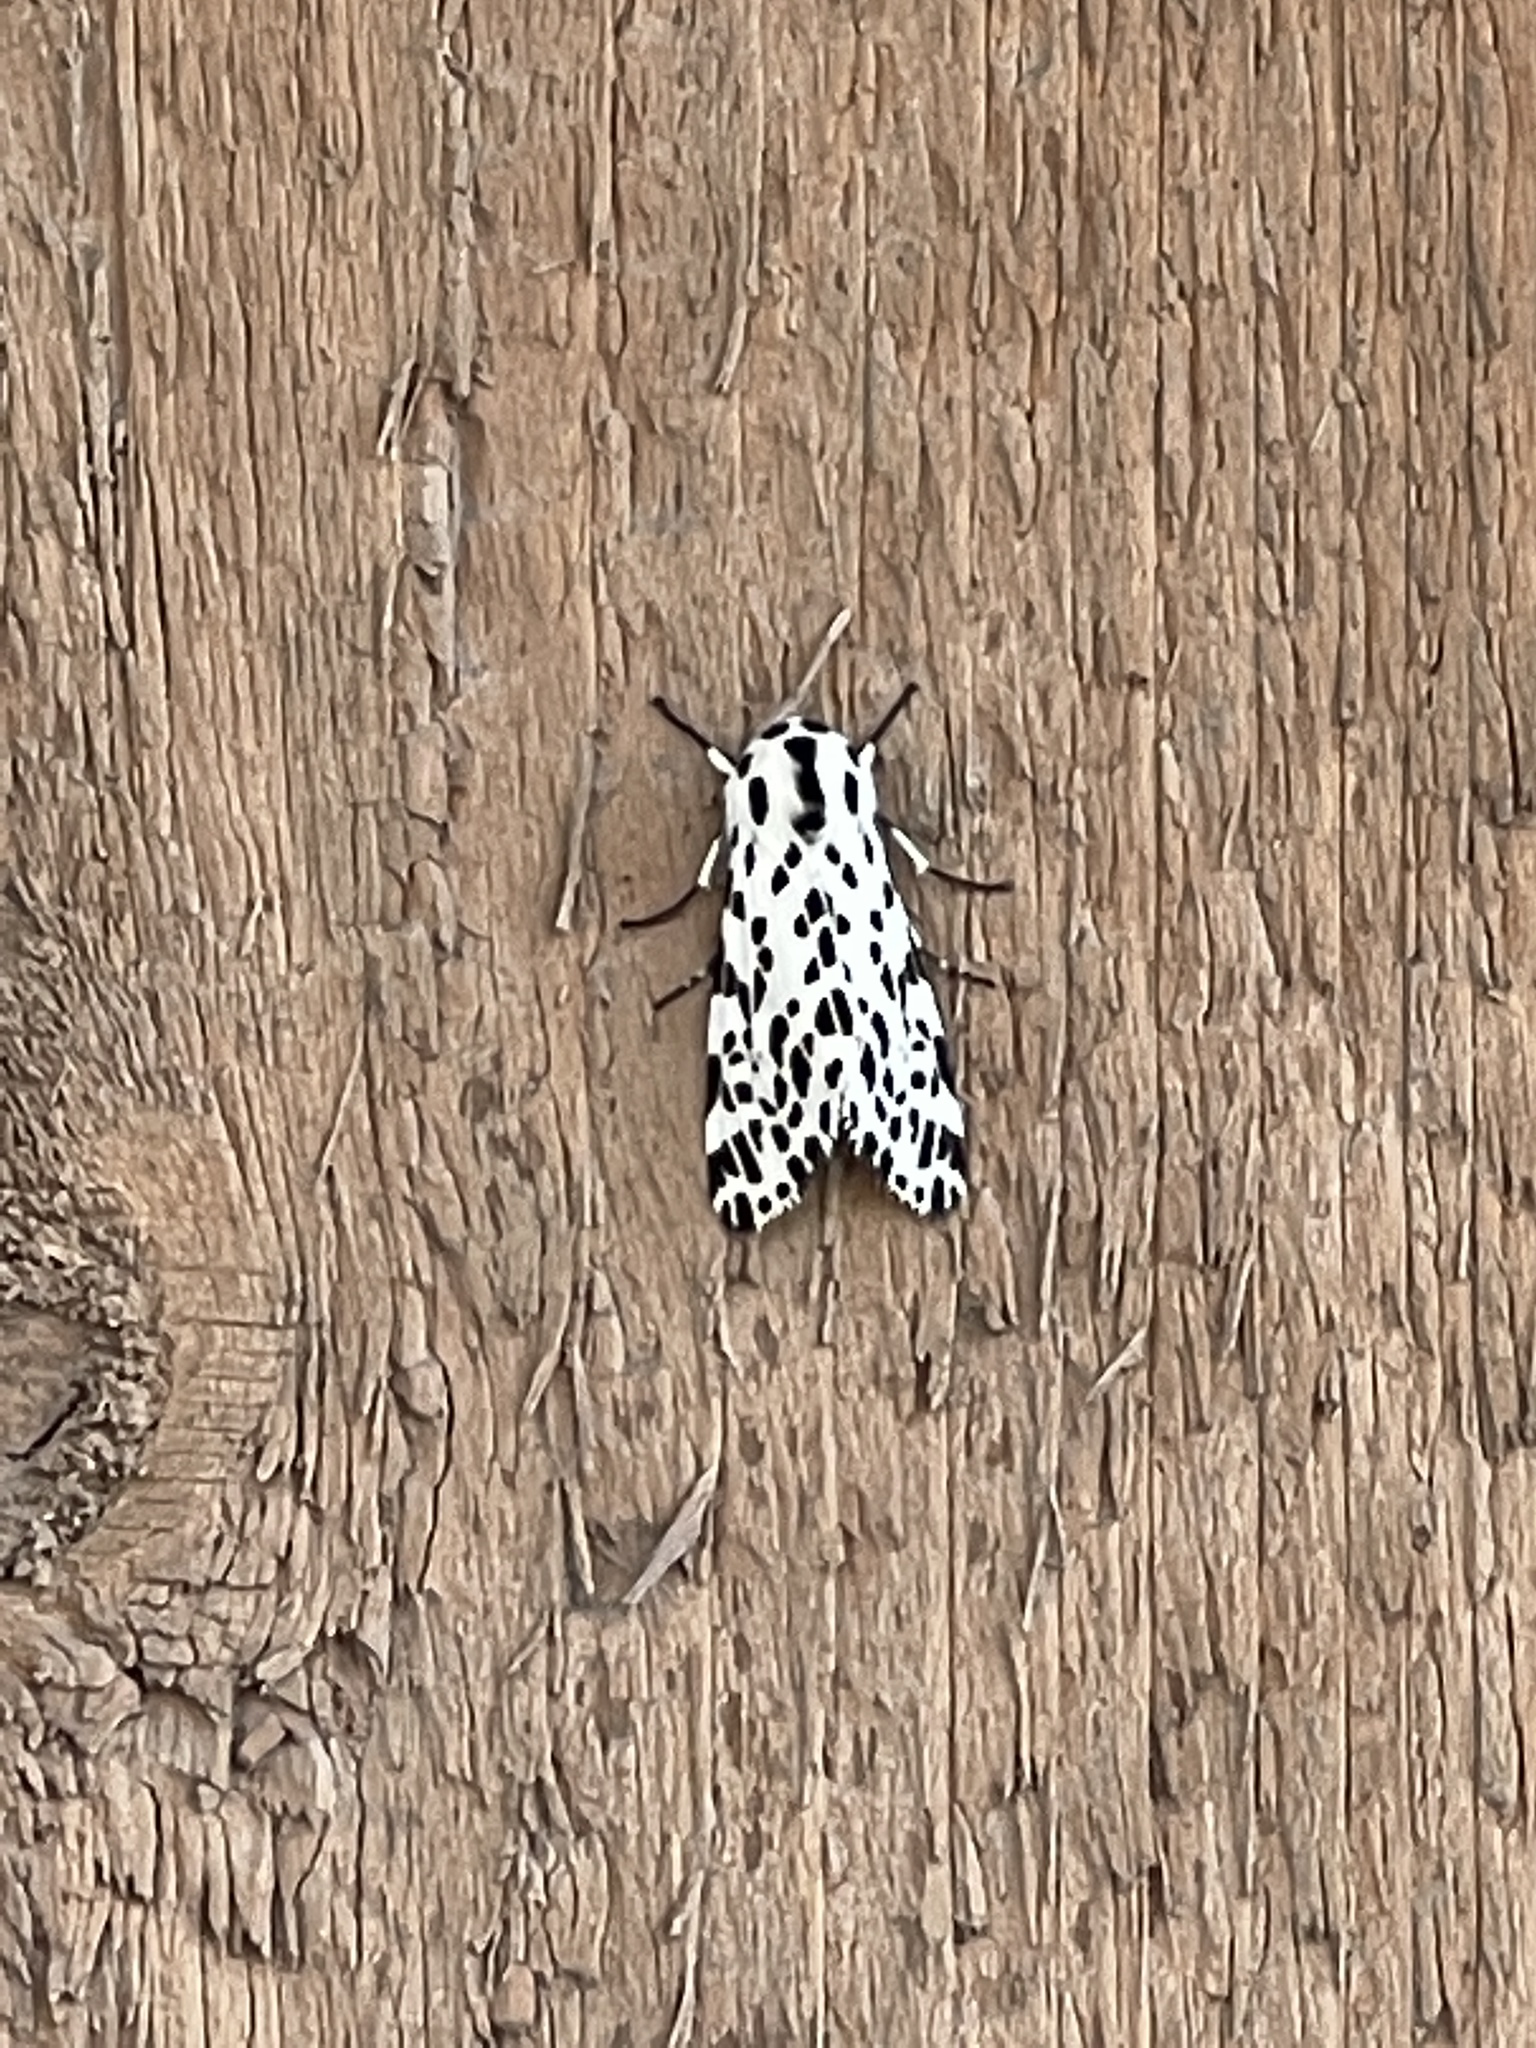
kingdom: Animalia
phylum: Arthropoda
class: Insecta
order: Lepidoptera
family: Erebidae
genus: Hypercompe
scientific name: Hypercompe permaculata
